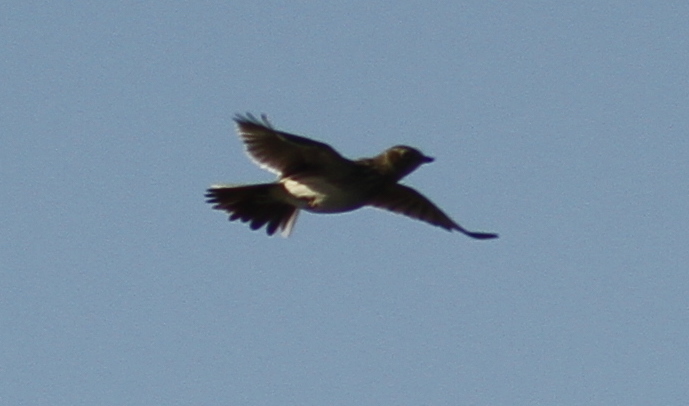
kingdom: Animalia
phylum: Chordata
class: Aves
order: Passeriformes
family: Alaudidae
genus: Alauda
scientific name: Alauda arvensis
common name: Eurasian skylark
